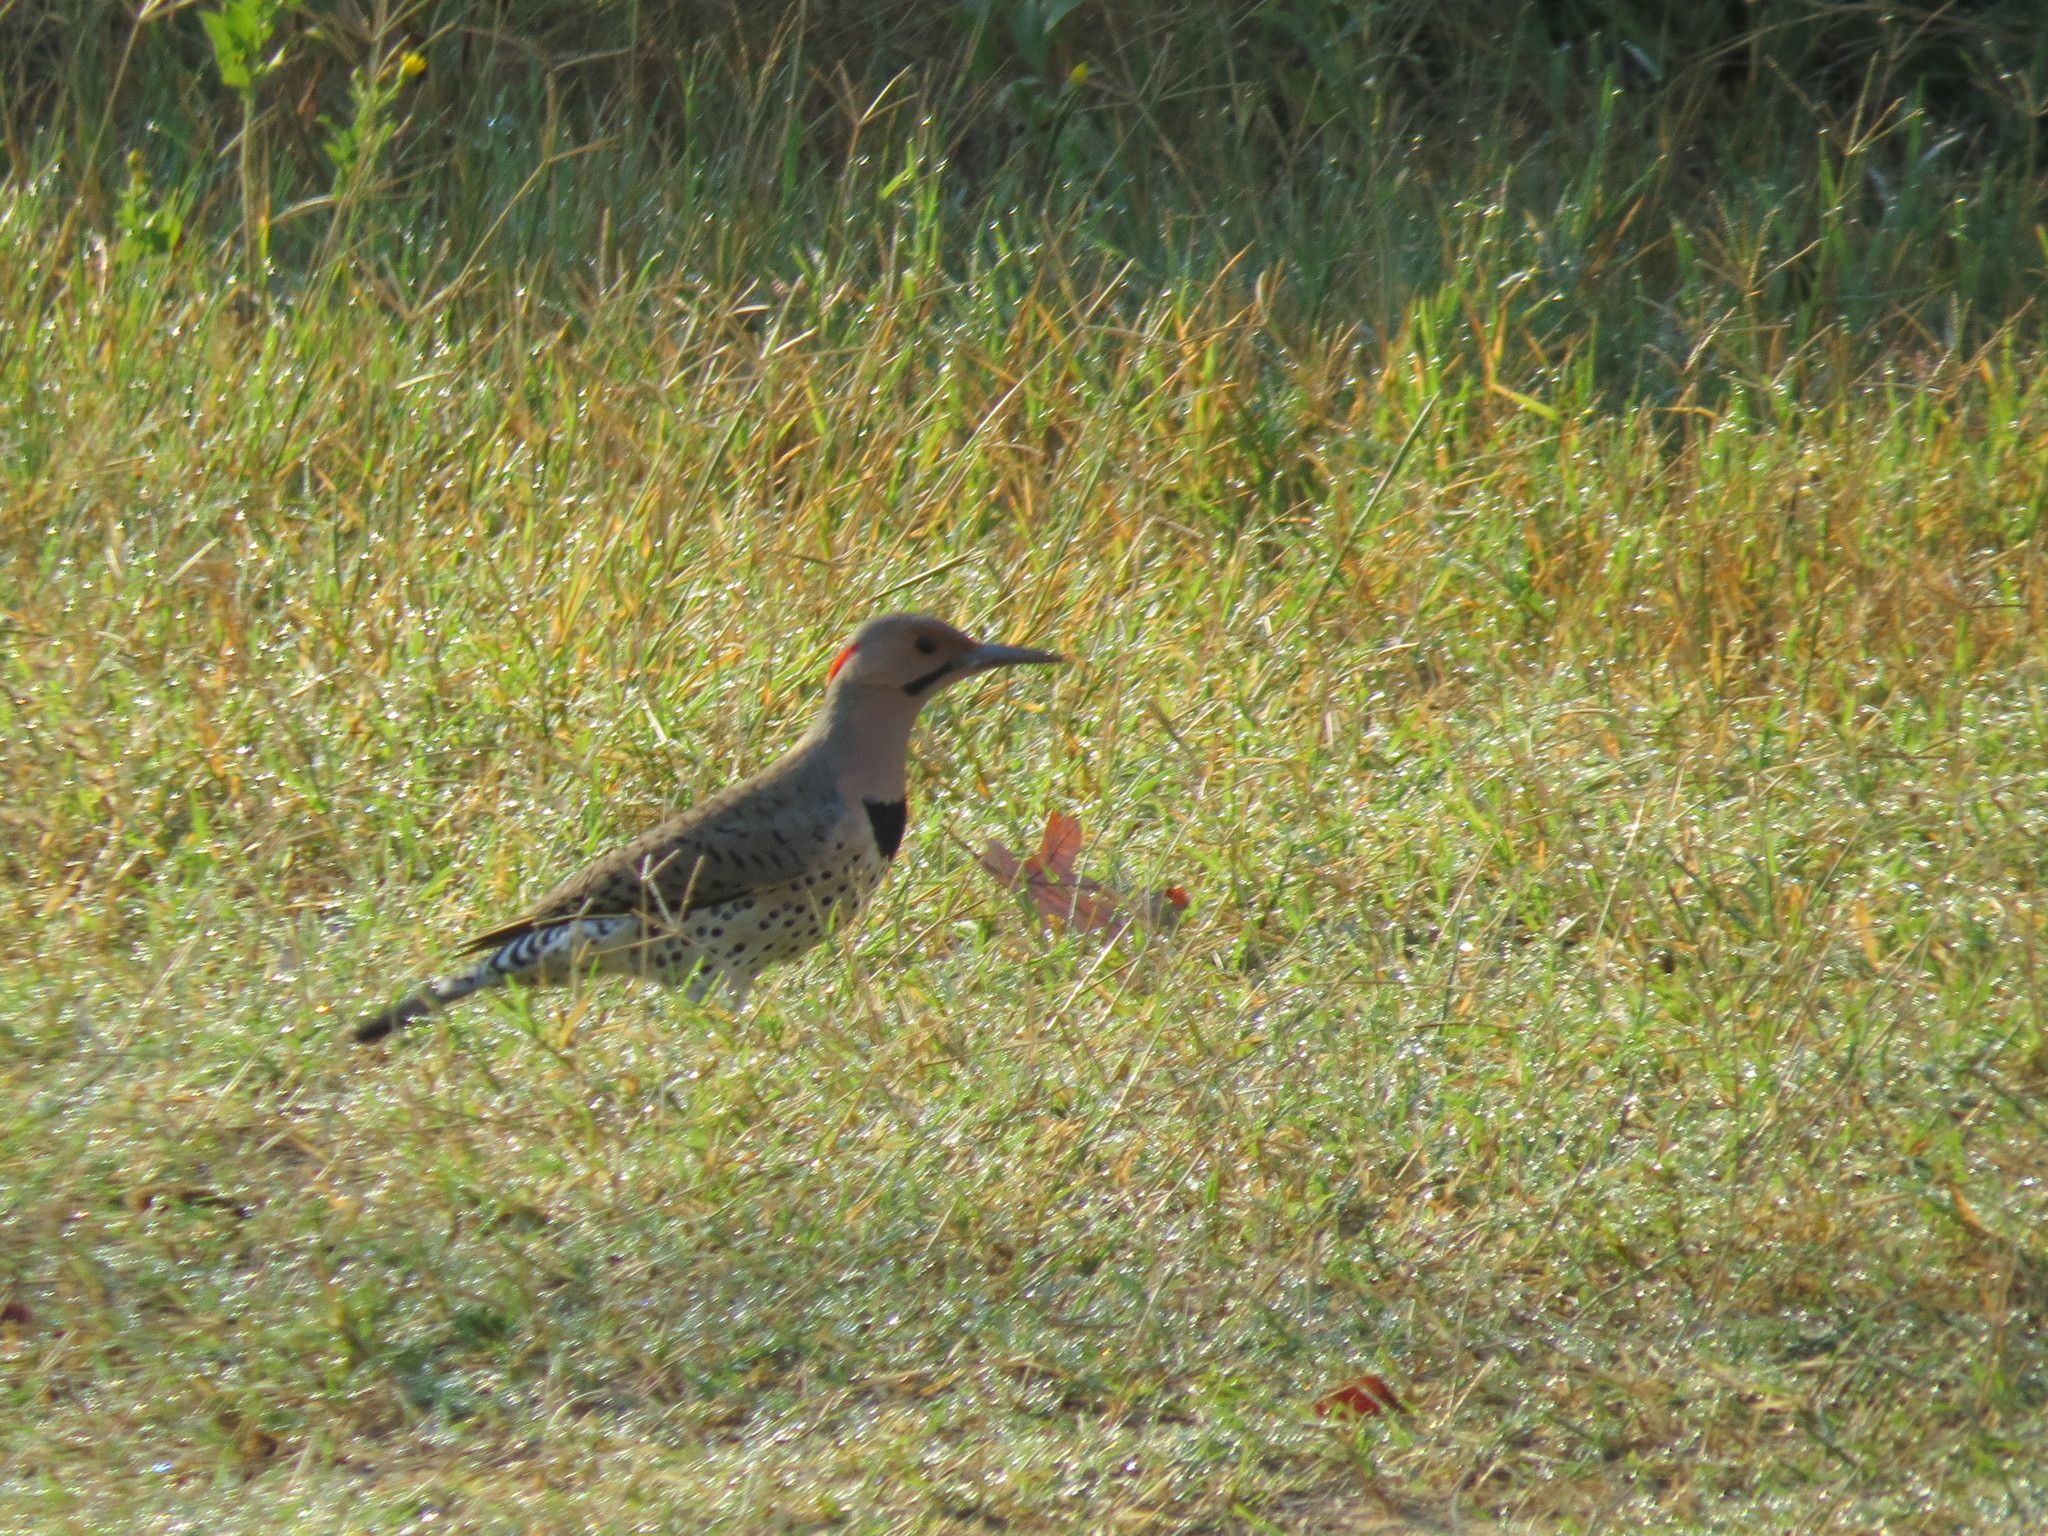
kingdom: Animalia
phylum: Chordata
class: Aves
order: Piciformes
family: Picidae
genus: Colaptes
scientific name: Colaptes auratus
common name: Northern flicker
